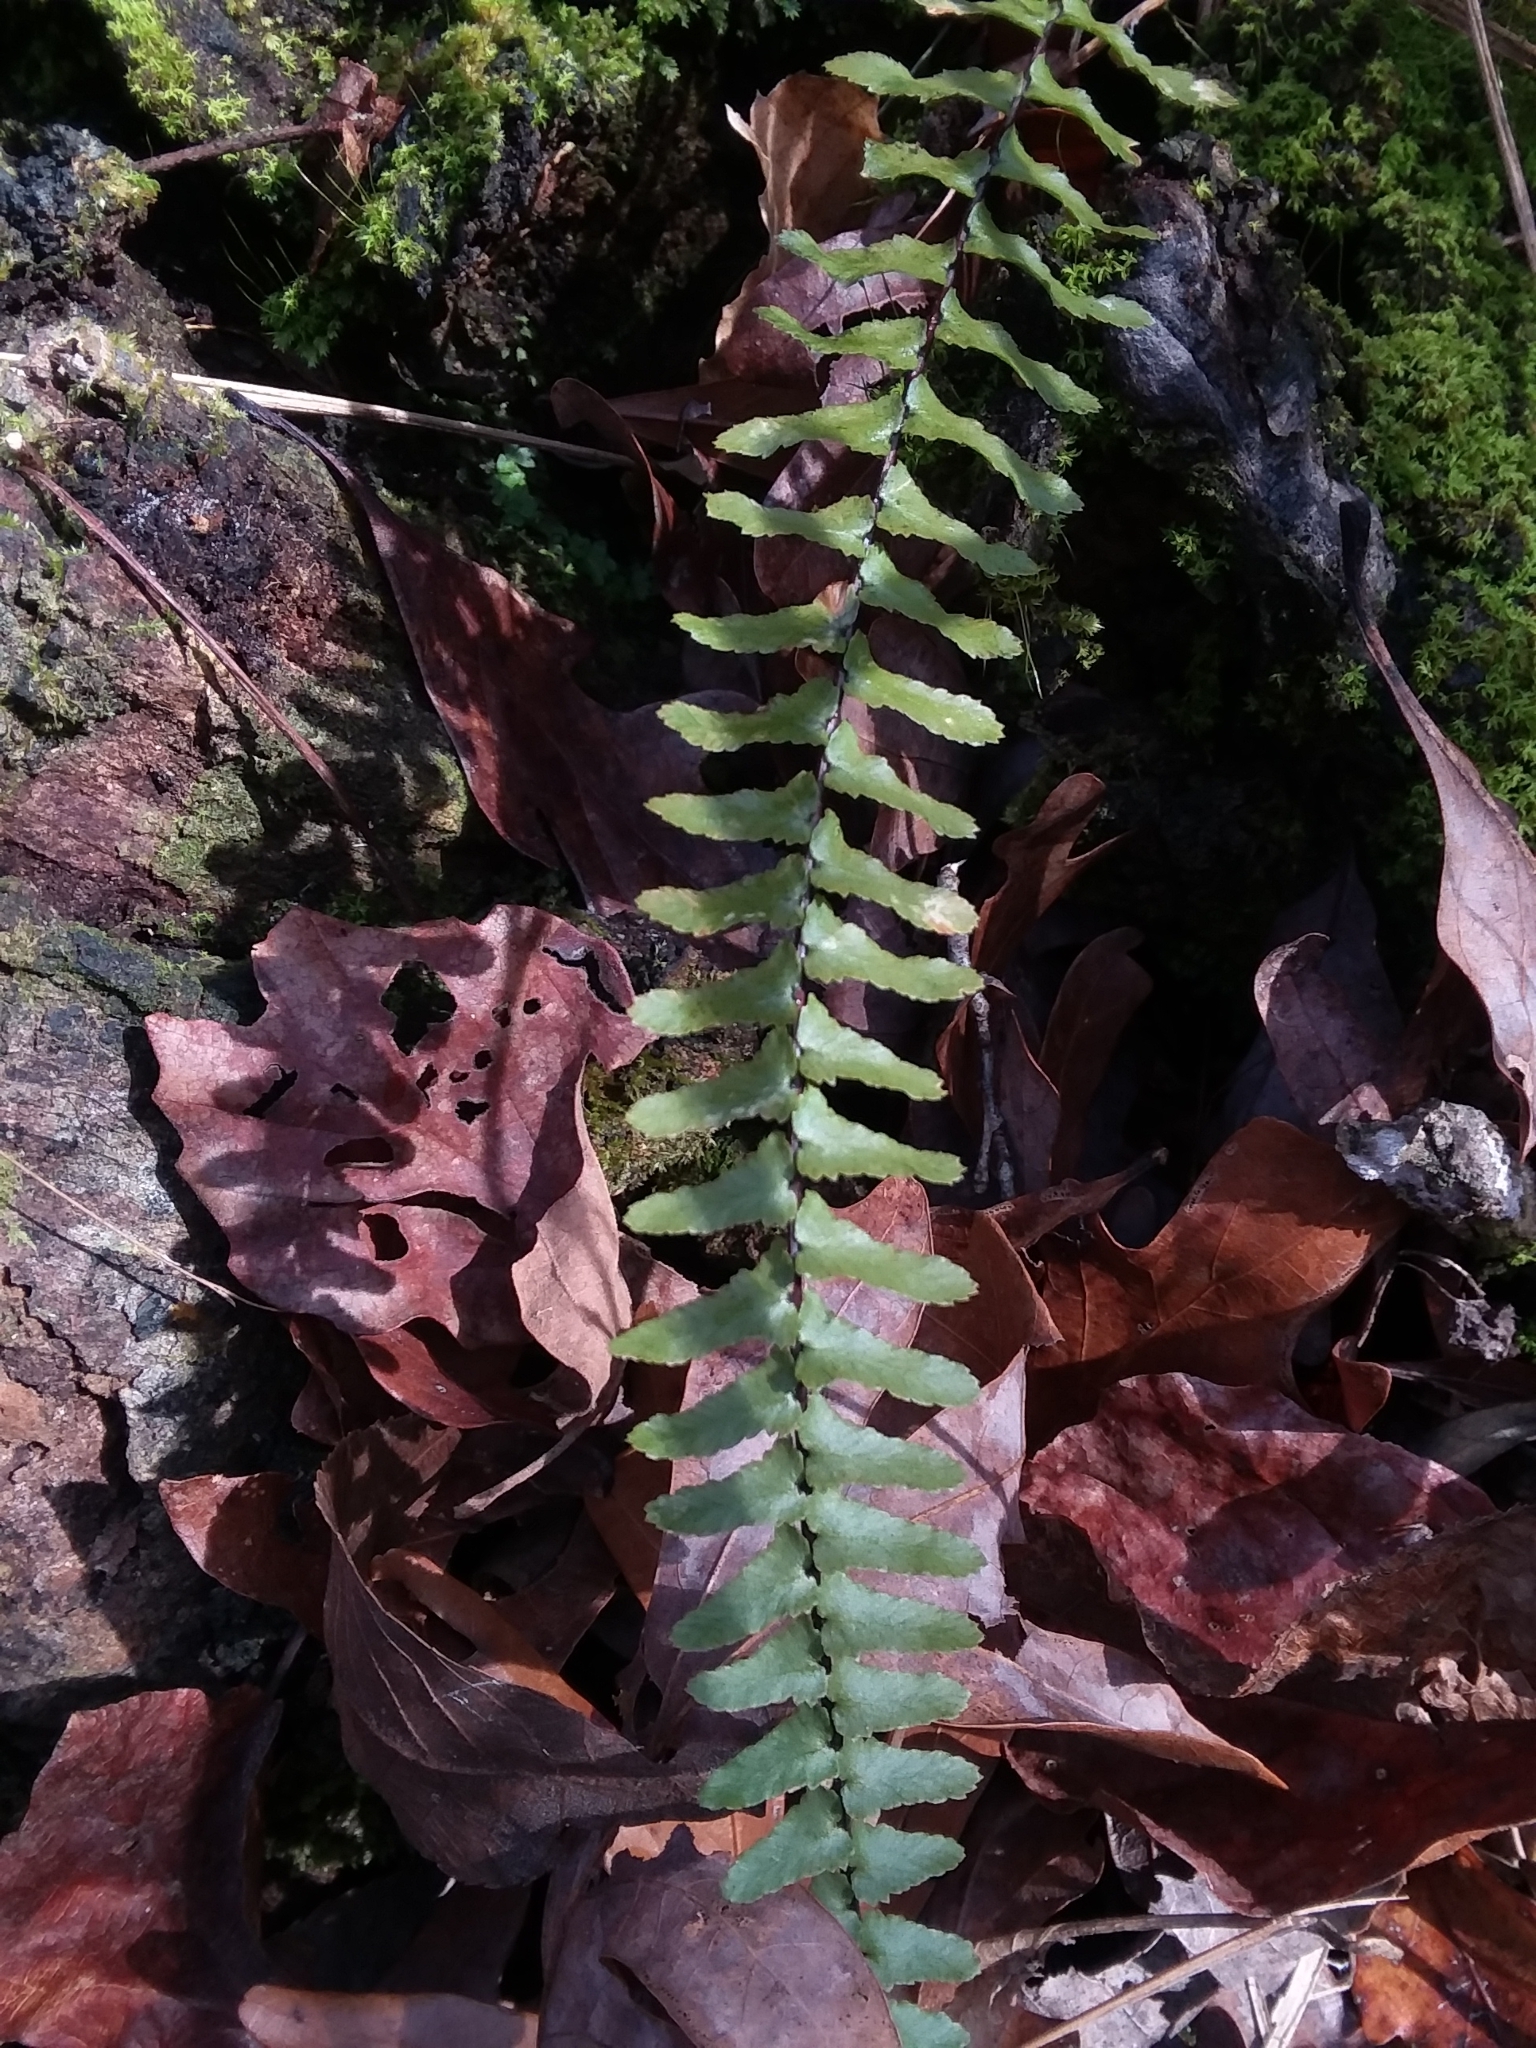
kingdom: Plantae
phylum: Tracheophyta
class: Polypodiopsida
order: Polypodiales
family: Aspleniaceae
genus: Asplenium
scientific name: Asplenium platyneuron
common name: Ebony spleenwort
